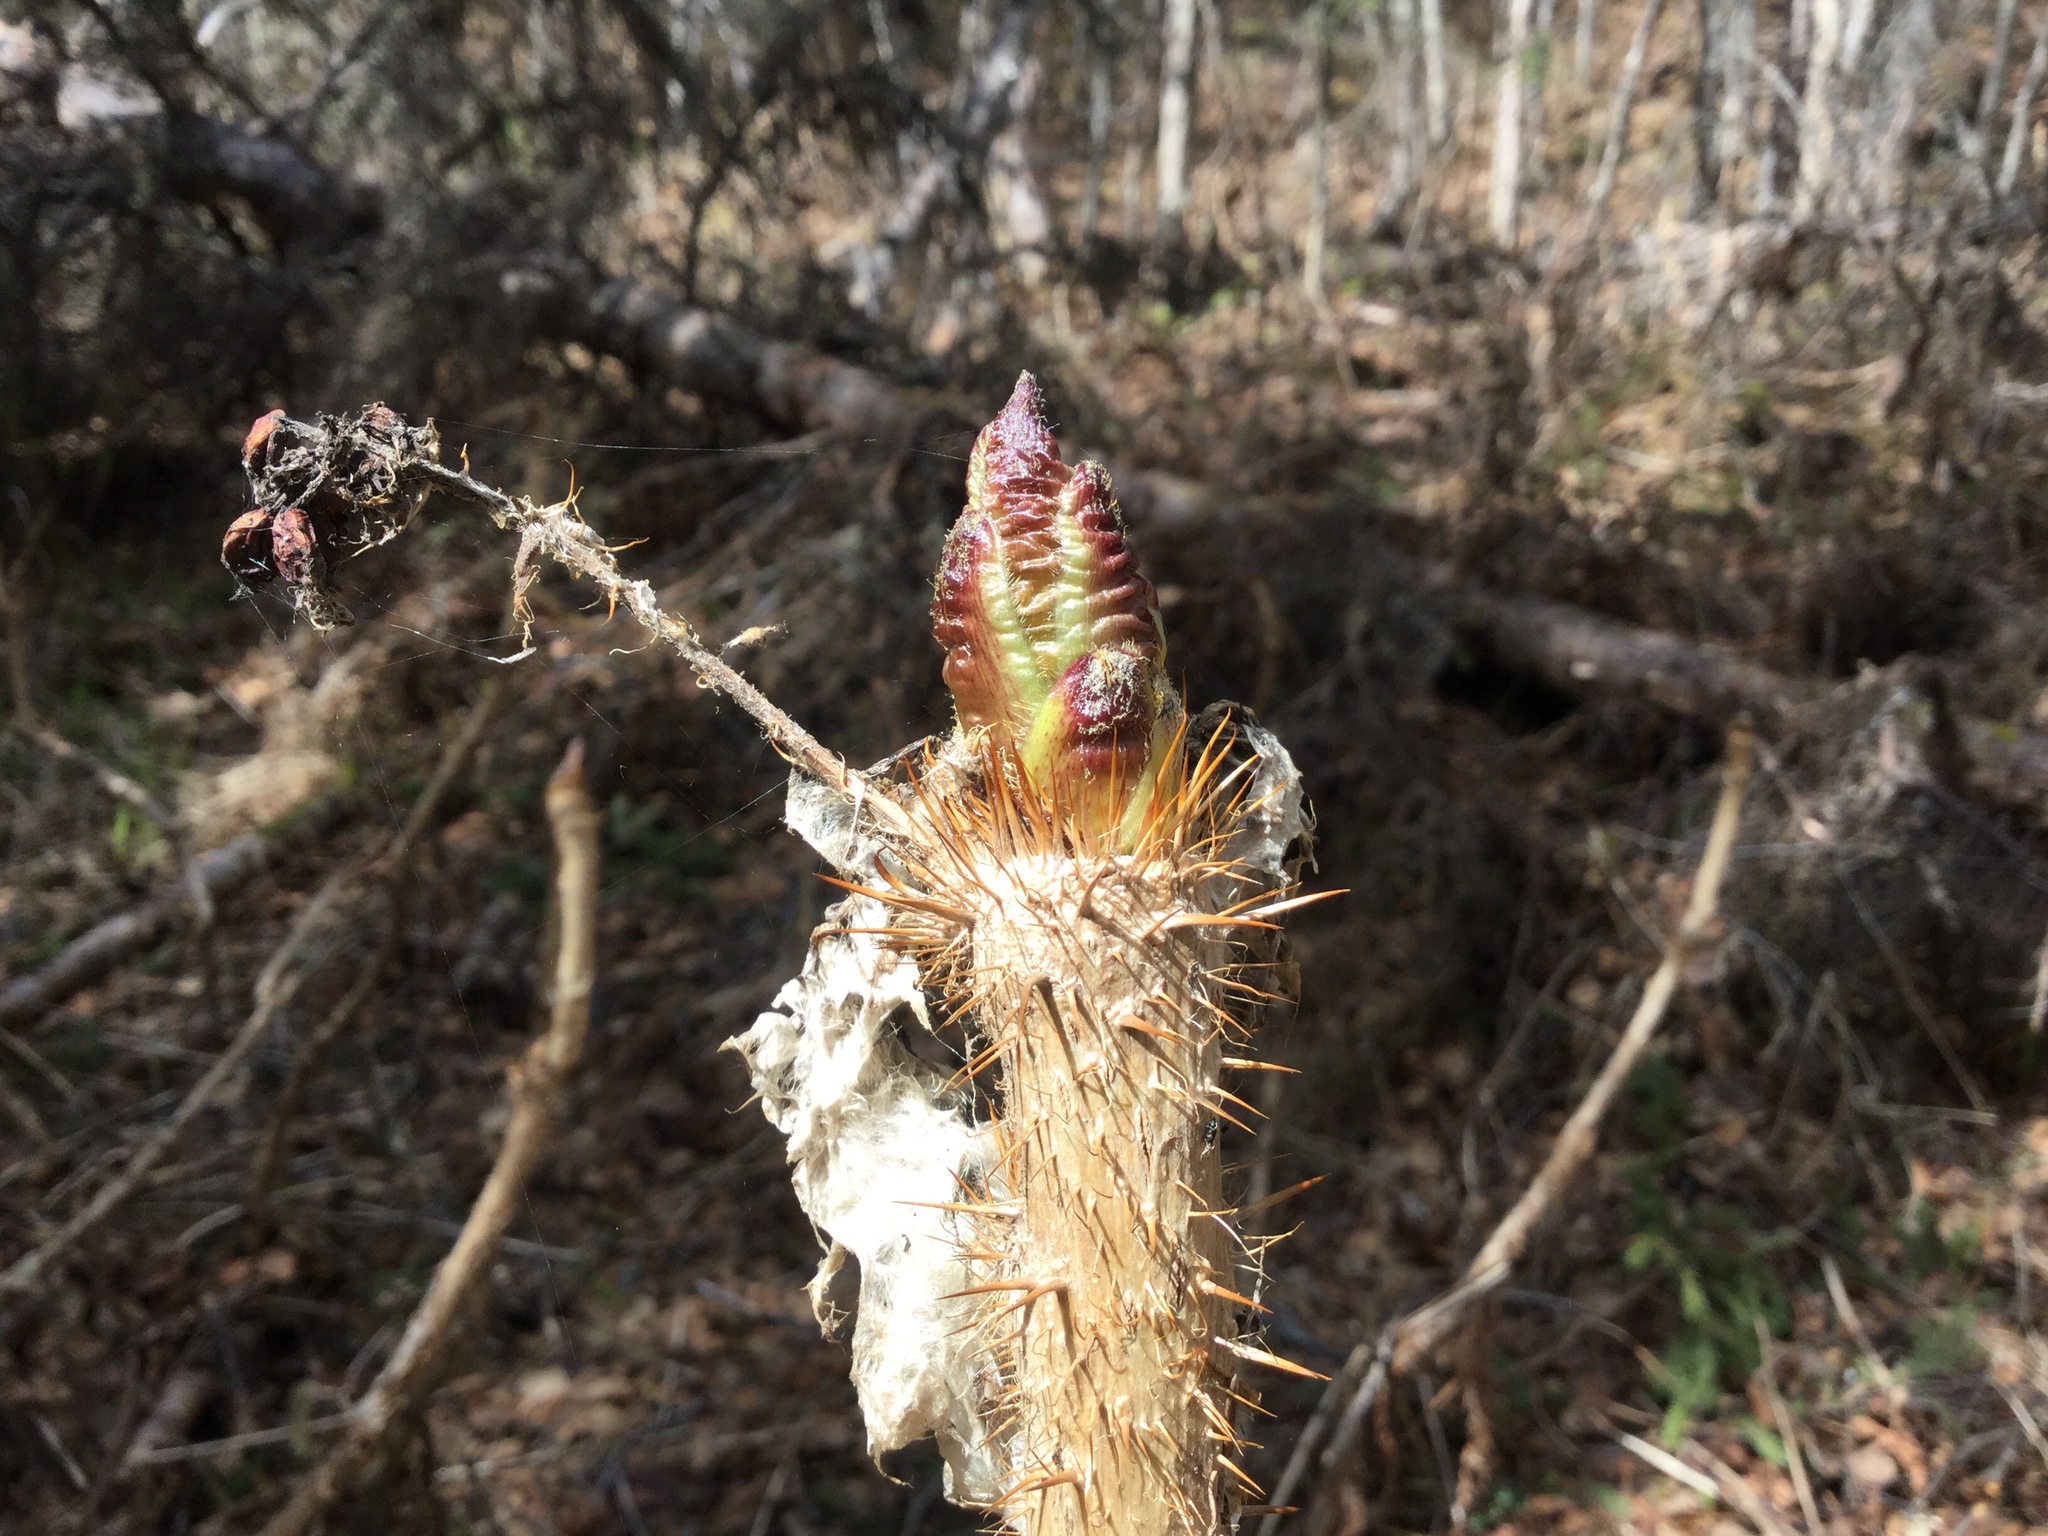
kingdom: Plantae
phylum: Tracheophyta
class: Magnoliopsida
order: Apiales
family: Araliaceae
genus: Oplopanax
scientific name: Oplopanax horridus
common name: Devil's walking-stick
